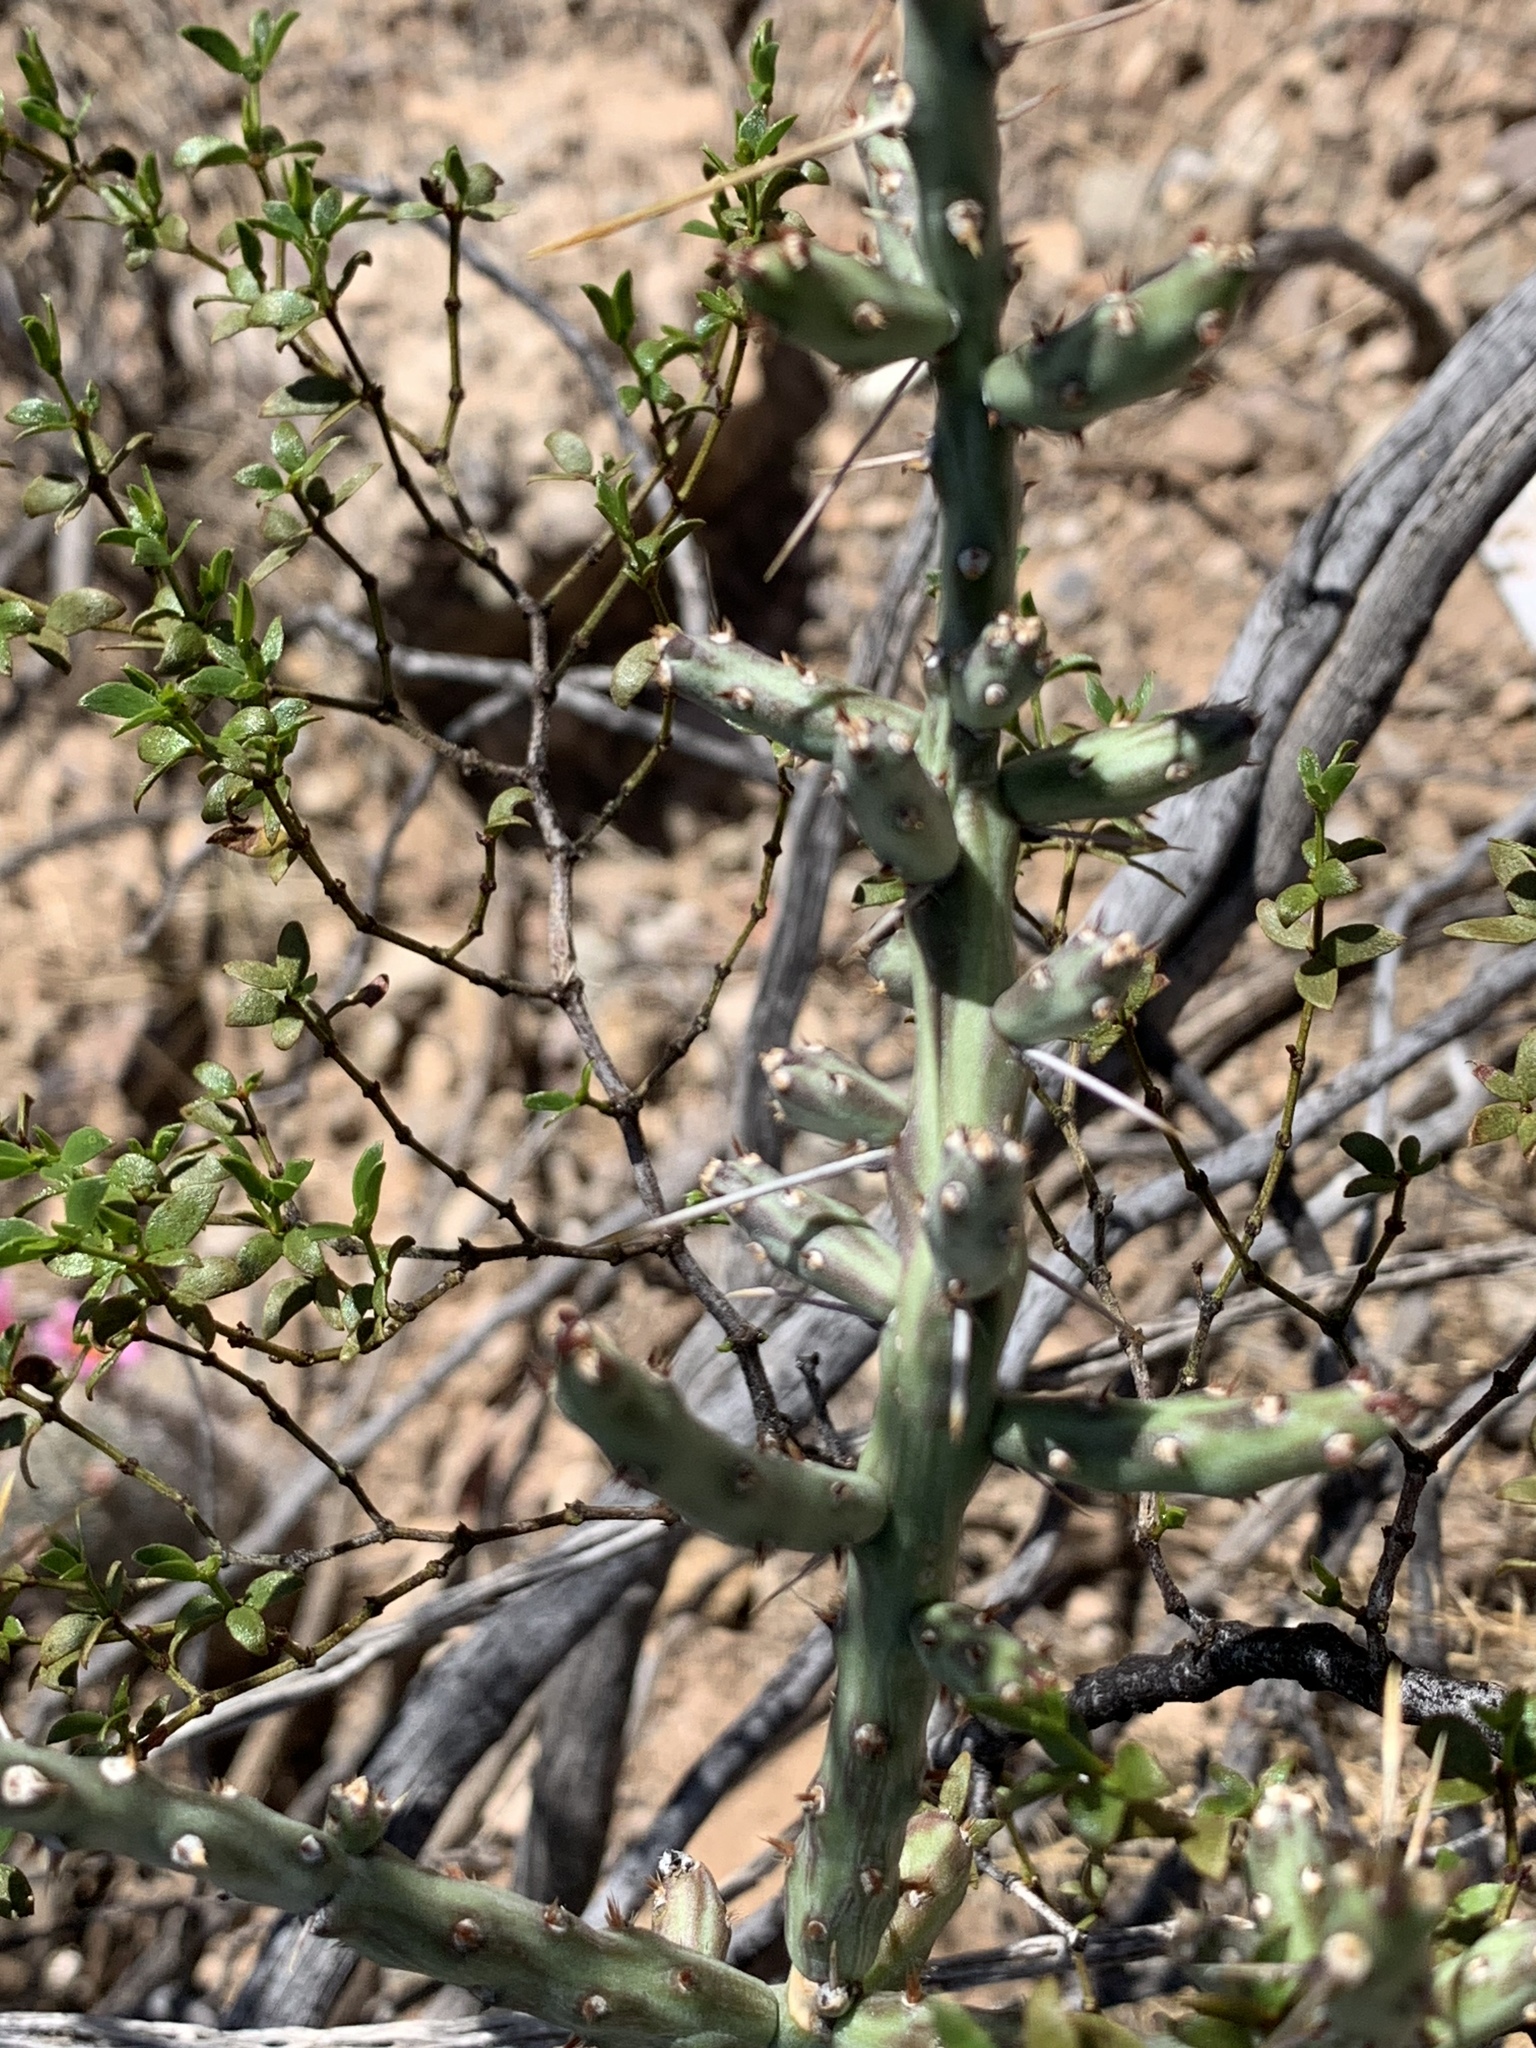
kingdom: Plantae
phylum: Tracheophyta
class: Magnoliopsida
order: Caryophyllales
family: Cactaceae
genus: Cylindropuntia
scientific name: Cylindropuntia leptocaulis
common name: Christmas cactus
